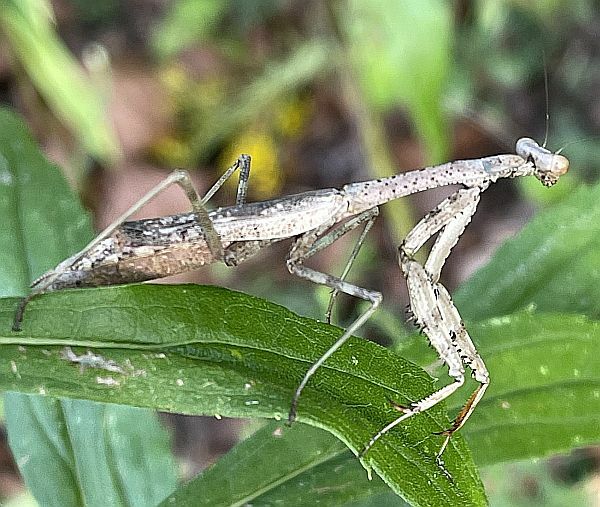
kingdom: Animalia
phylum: Arthropoda
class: Insecta
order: Mantodea
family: Mantidae
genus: Stagmomantis
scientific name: Stagmomantis carolina
